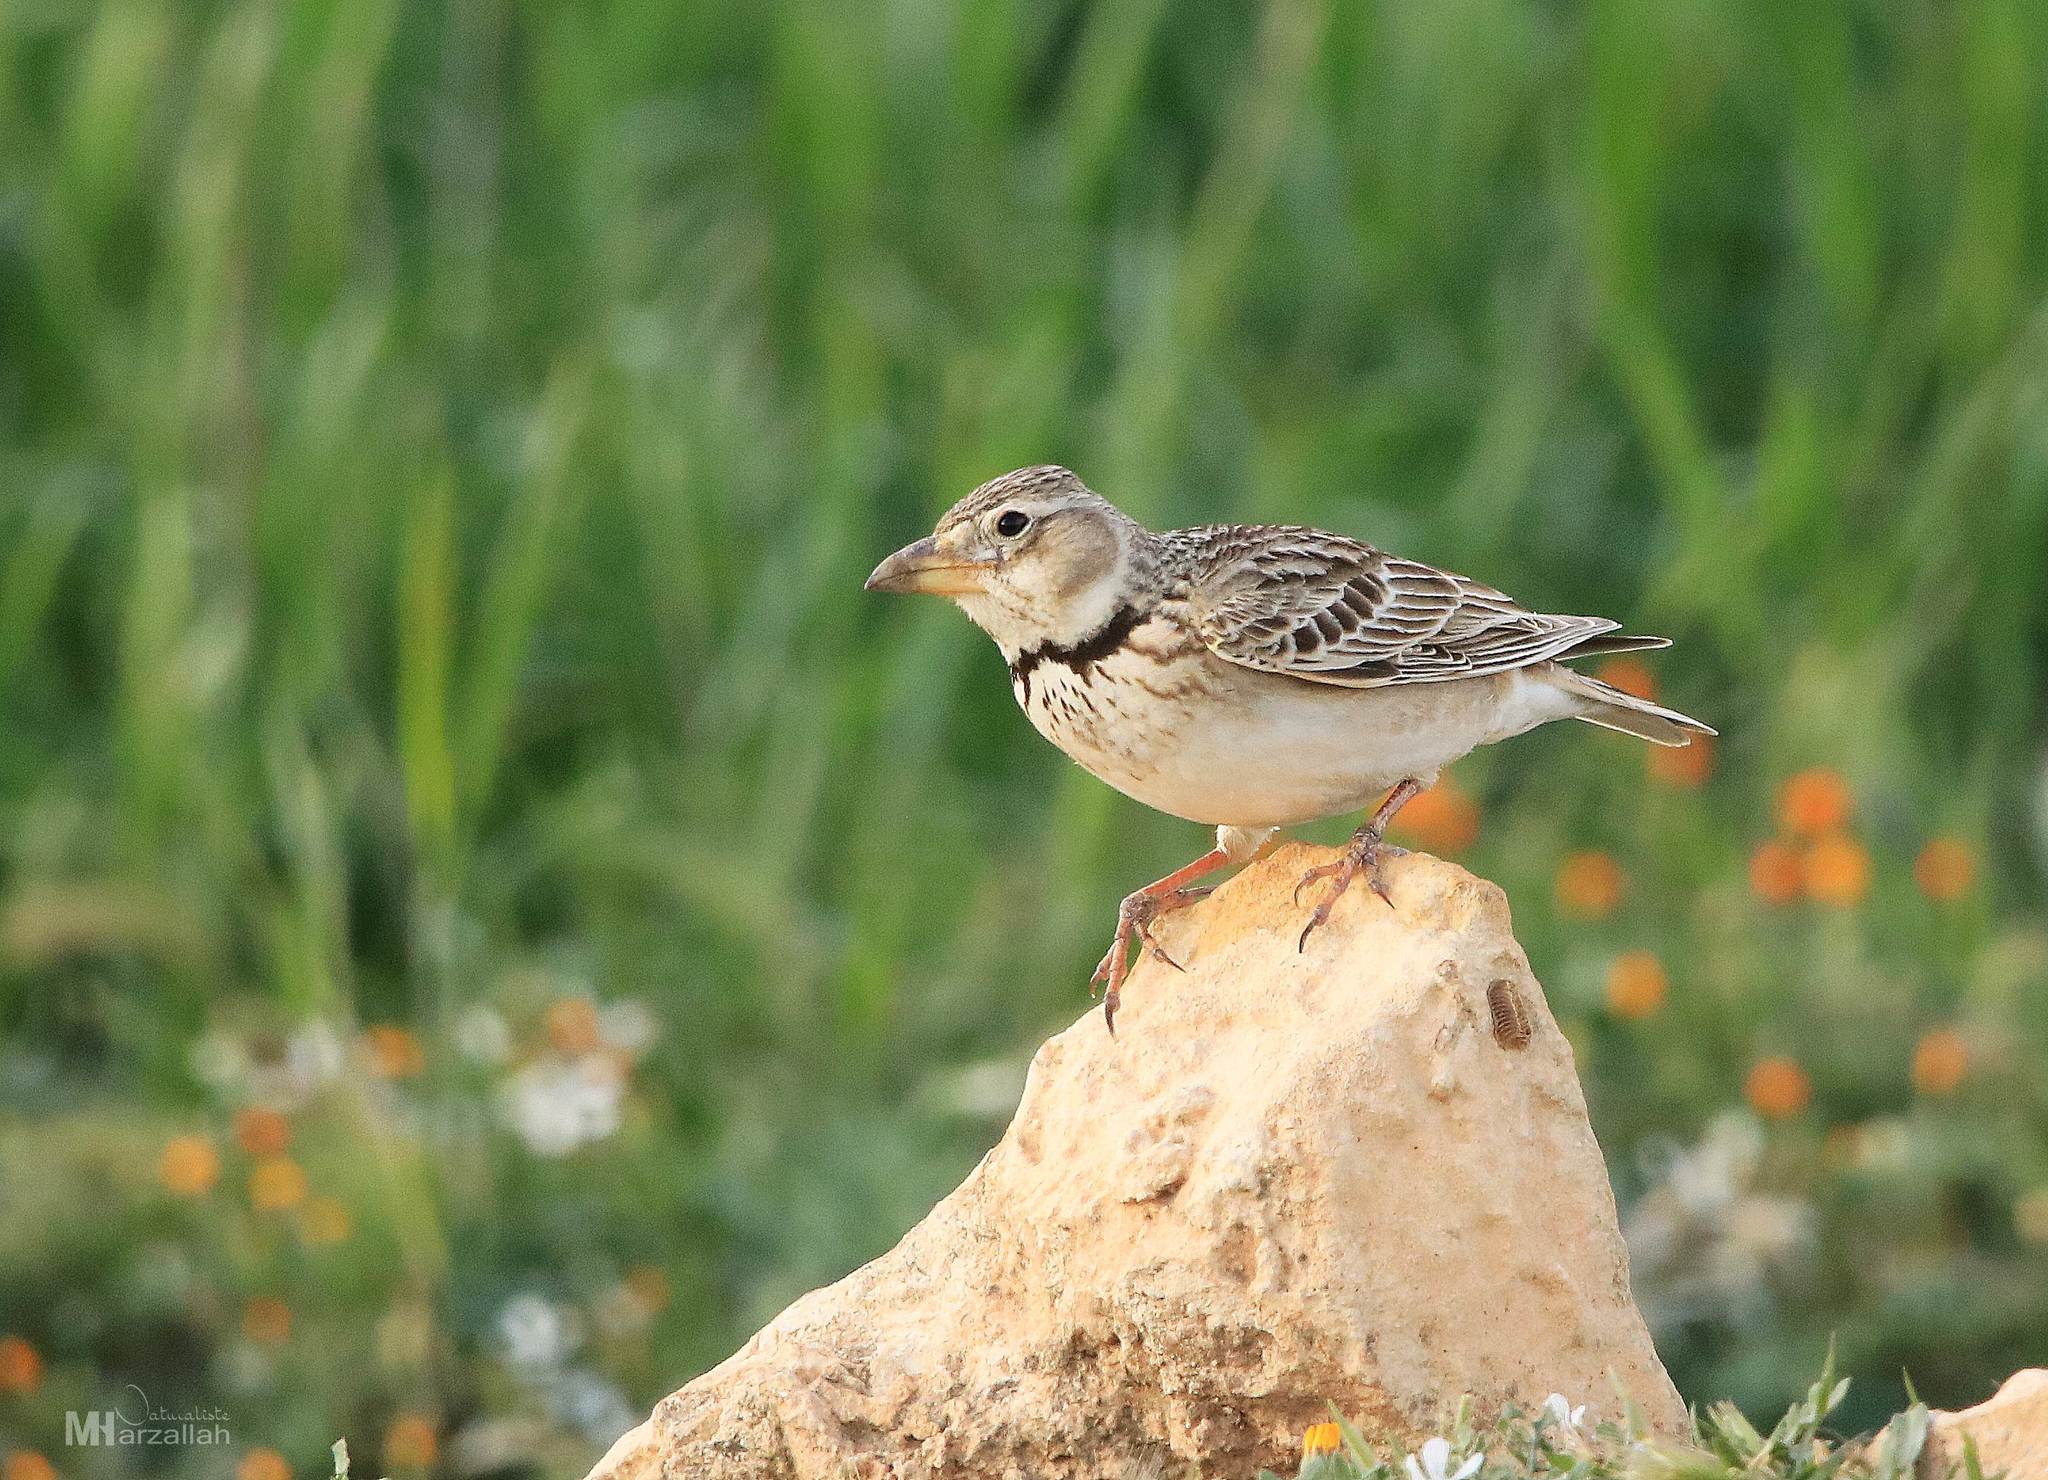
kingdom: Animalia
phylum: Chordata
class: Aves
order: Passeriformes
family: Alaudidae
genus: Melanocorypha
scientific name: Melanocorypha calandra
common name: Calandra lark
